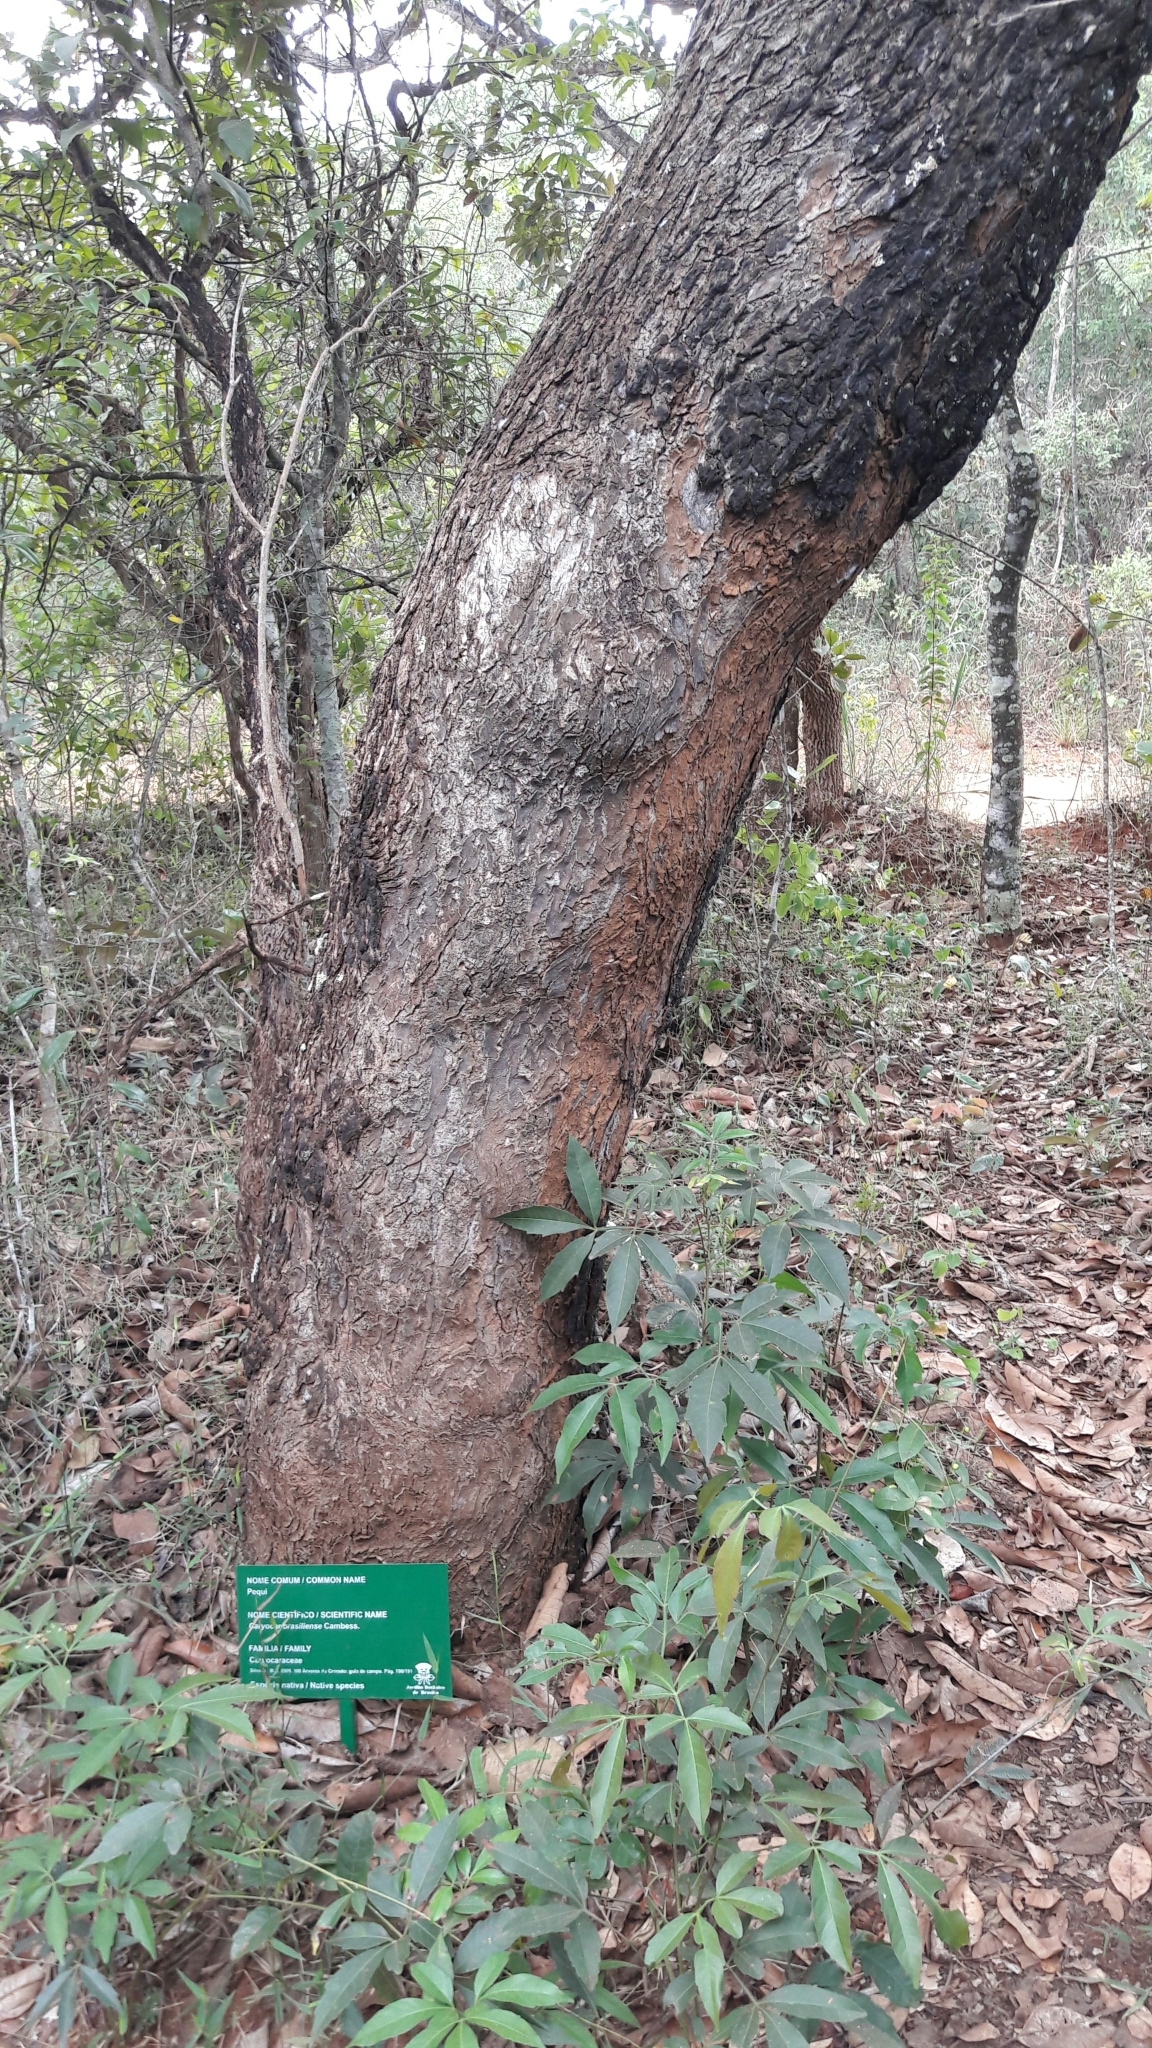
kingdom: Plantae
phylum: Tracheophyta
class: Magnoliopsida
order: Malpighiales
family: Caryocaraceae
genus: Caryocar
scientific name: Caryocar brasiliense
